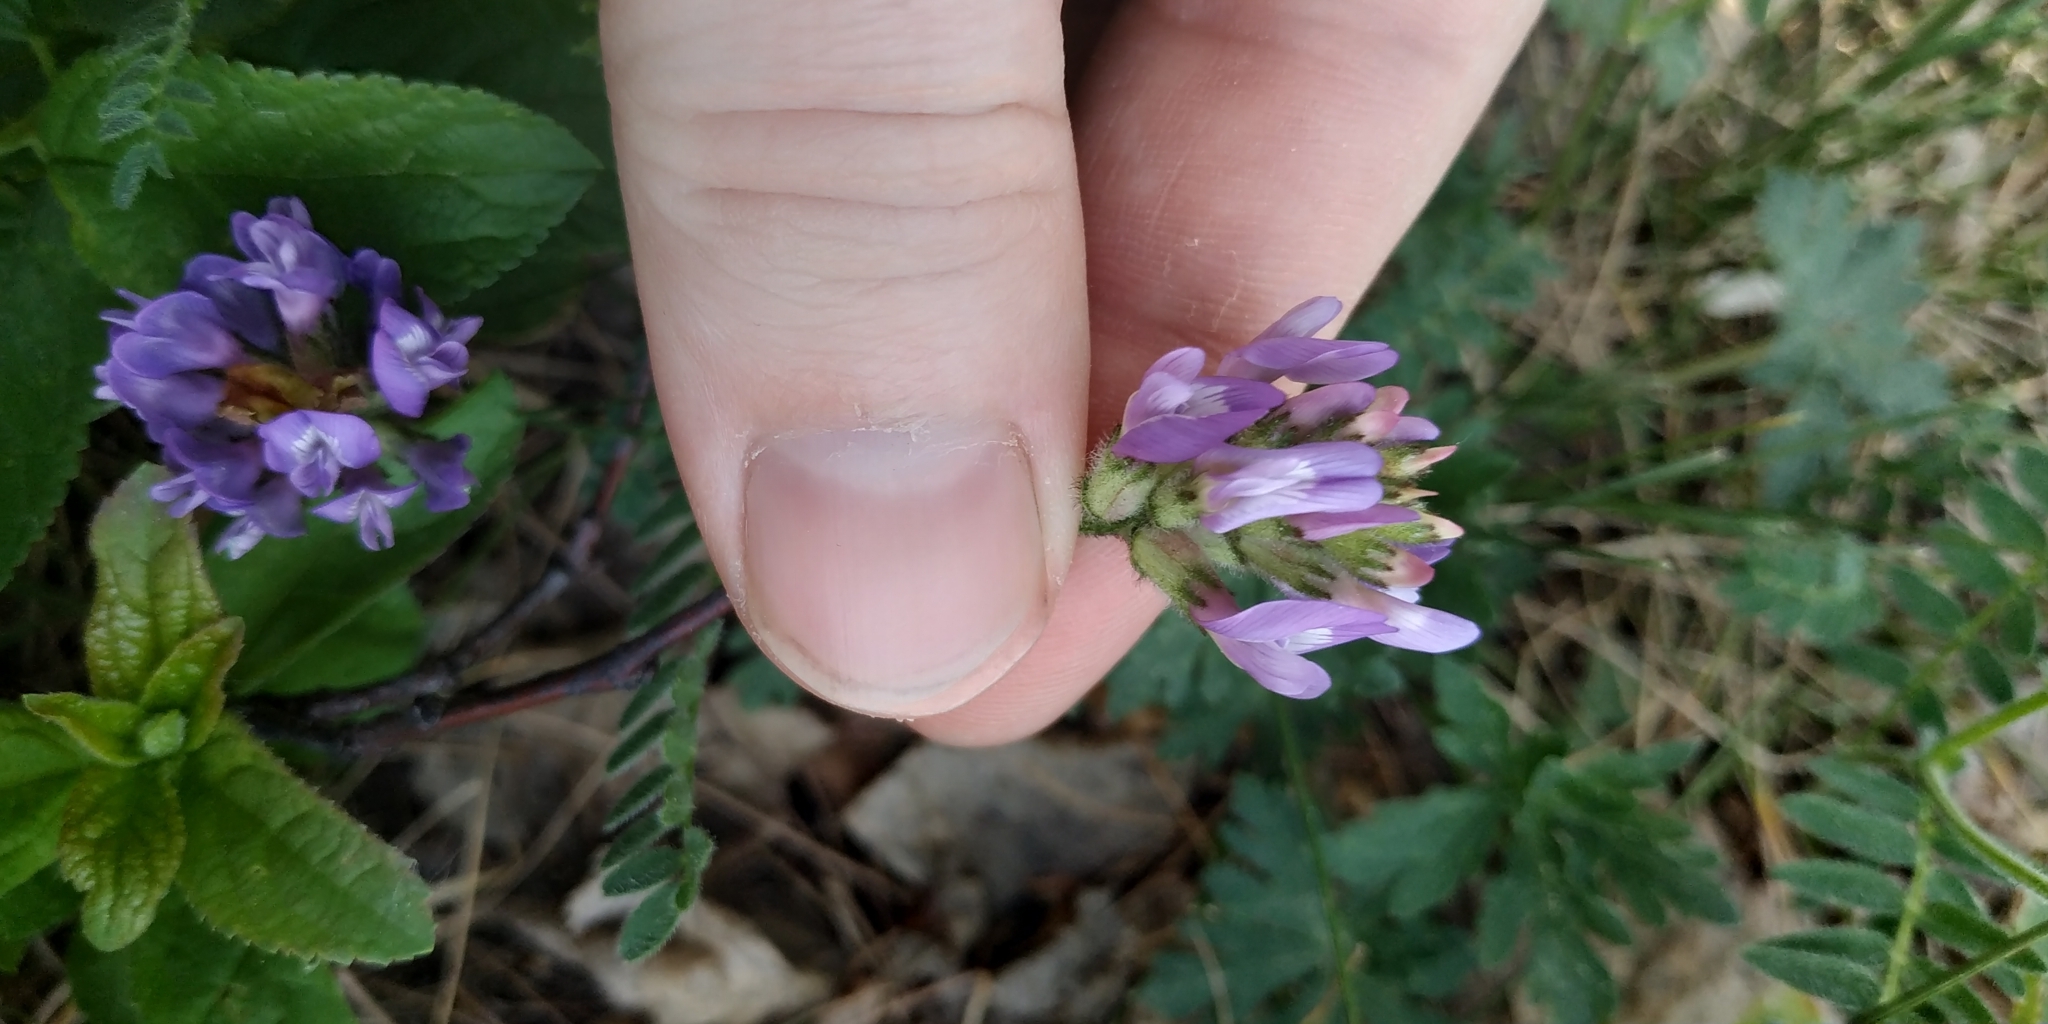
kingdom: Plantae
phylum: Tracheophyta
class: Magnoliopsida
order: Fabales
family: Fabaceae
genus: Astragalus
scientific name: Astragalus danicus
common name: Purple milk-vetch
